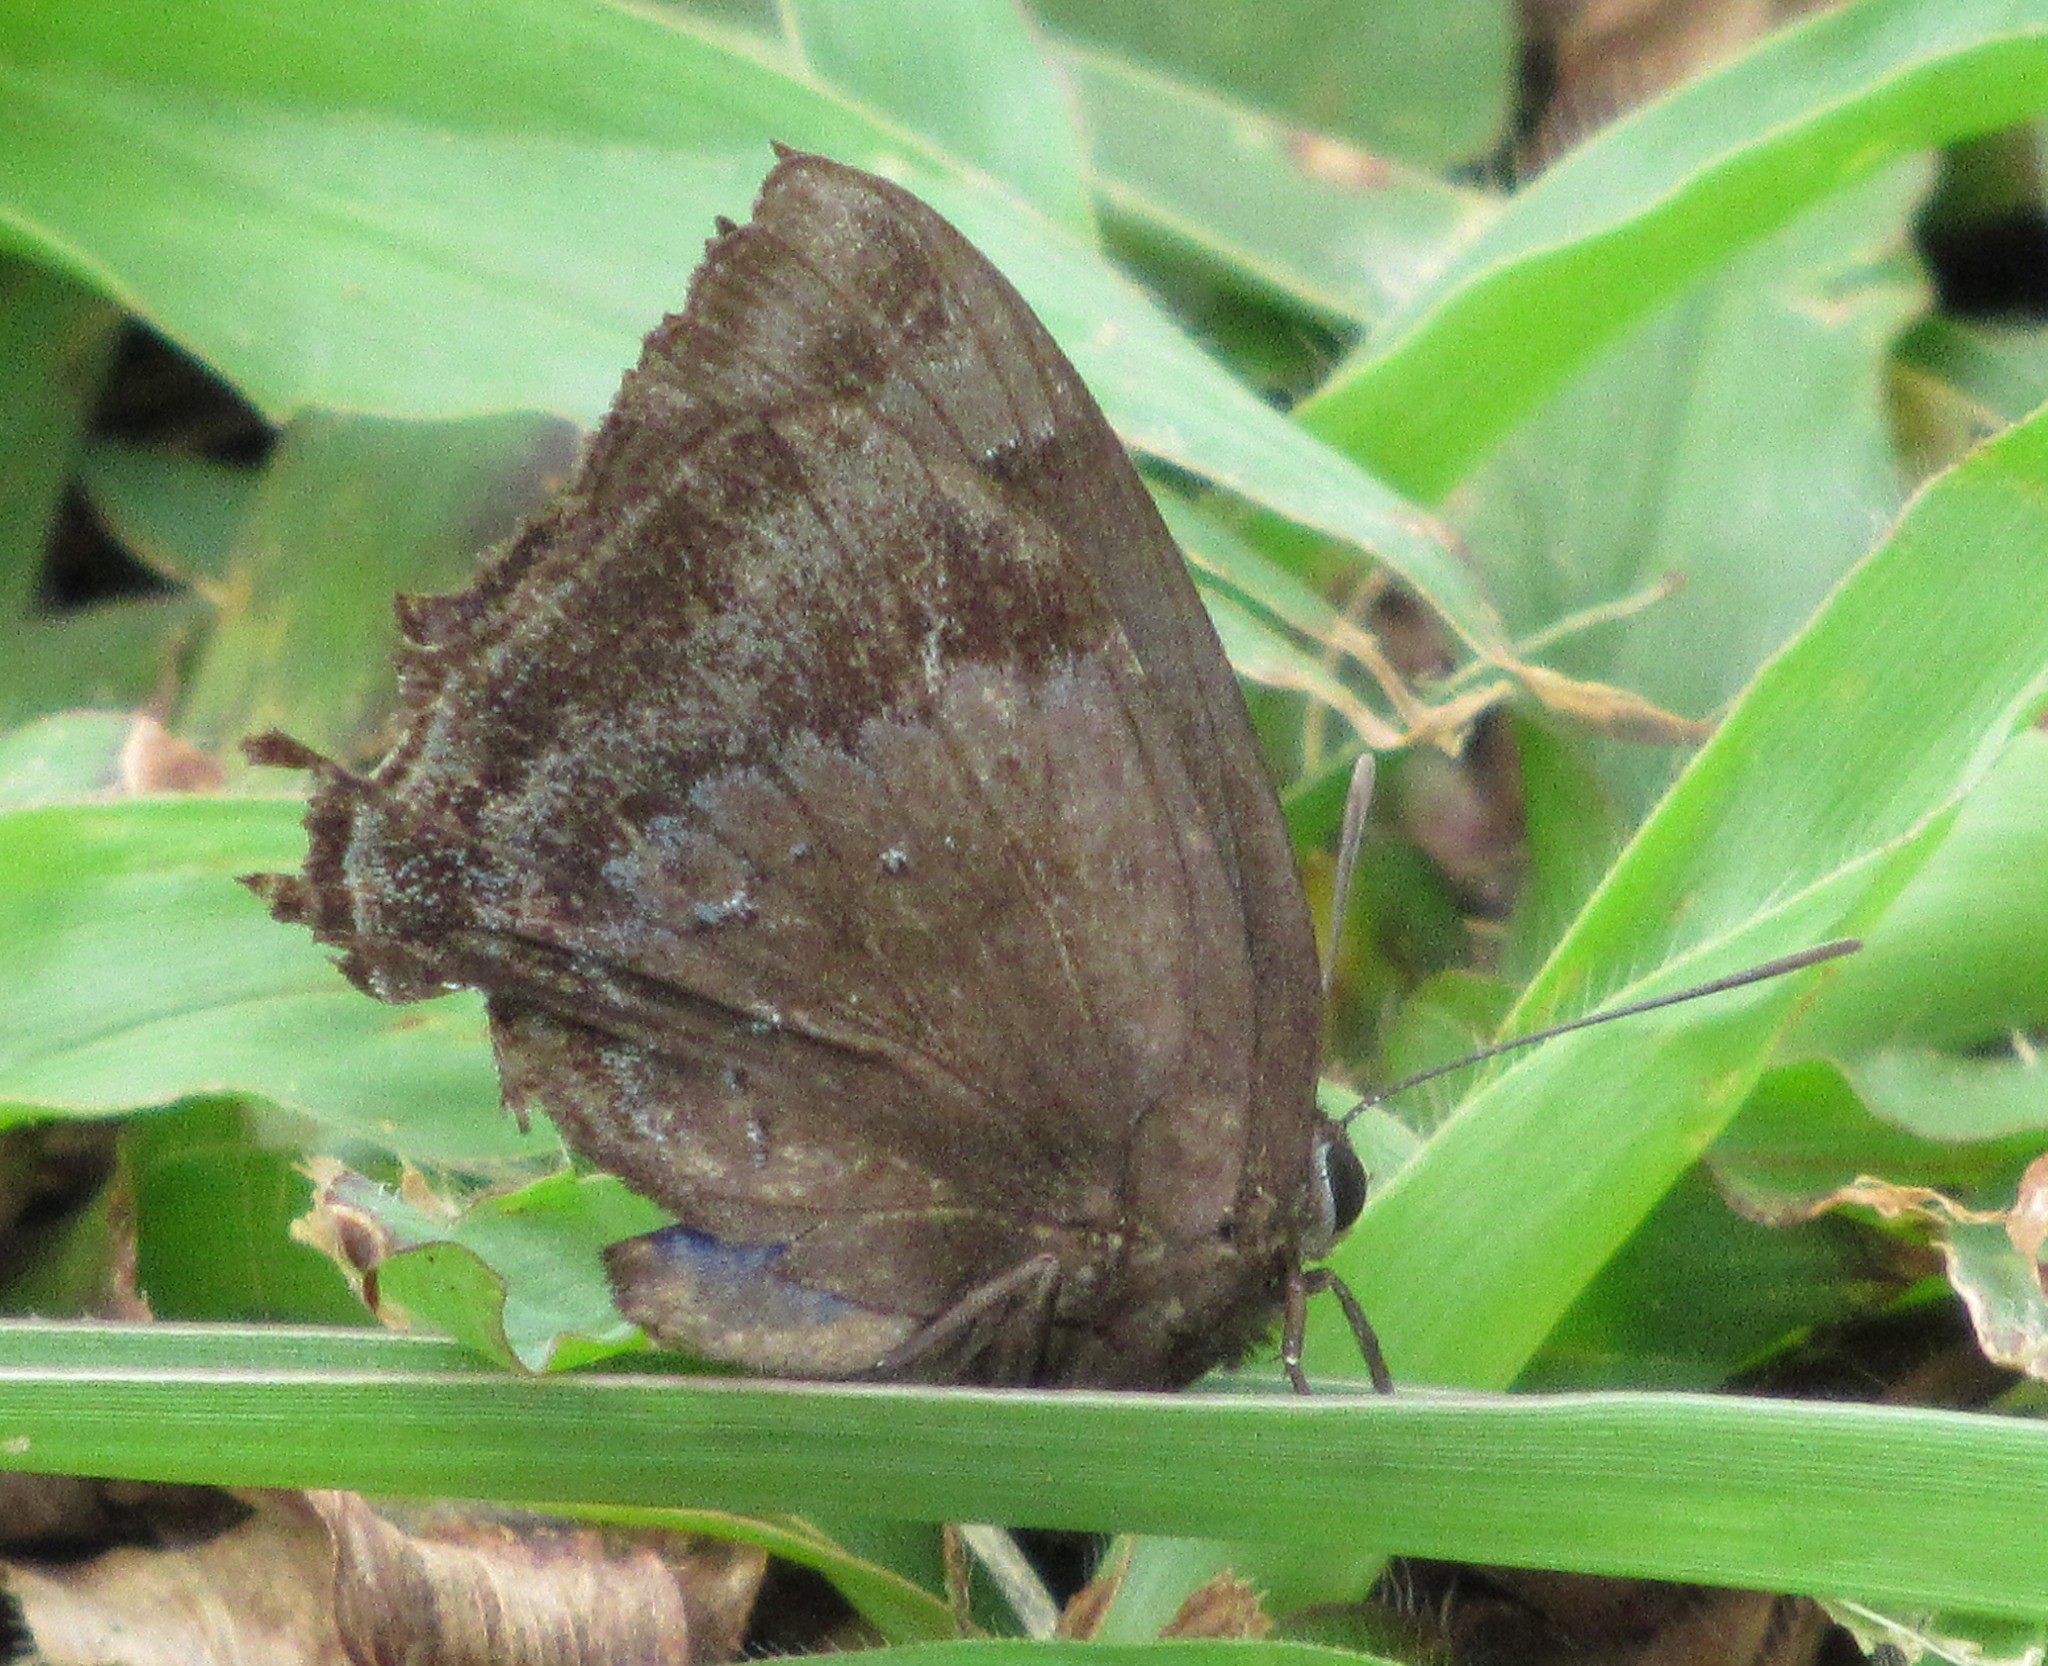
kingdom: Animalia
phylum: Arthropoda
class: Insecta
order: Lepidoptera
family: Lycaenidae
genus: Denivia
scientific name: Denivia
